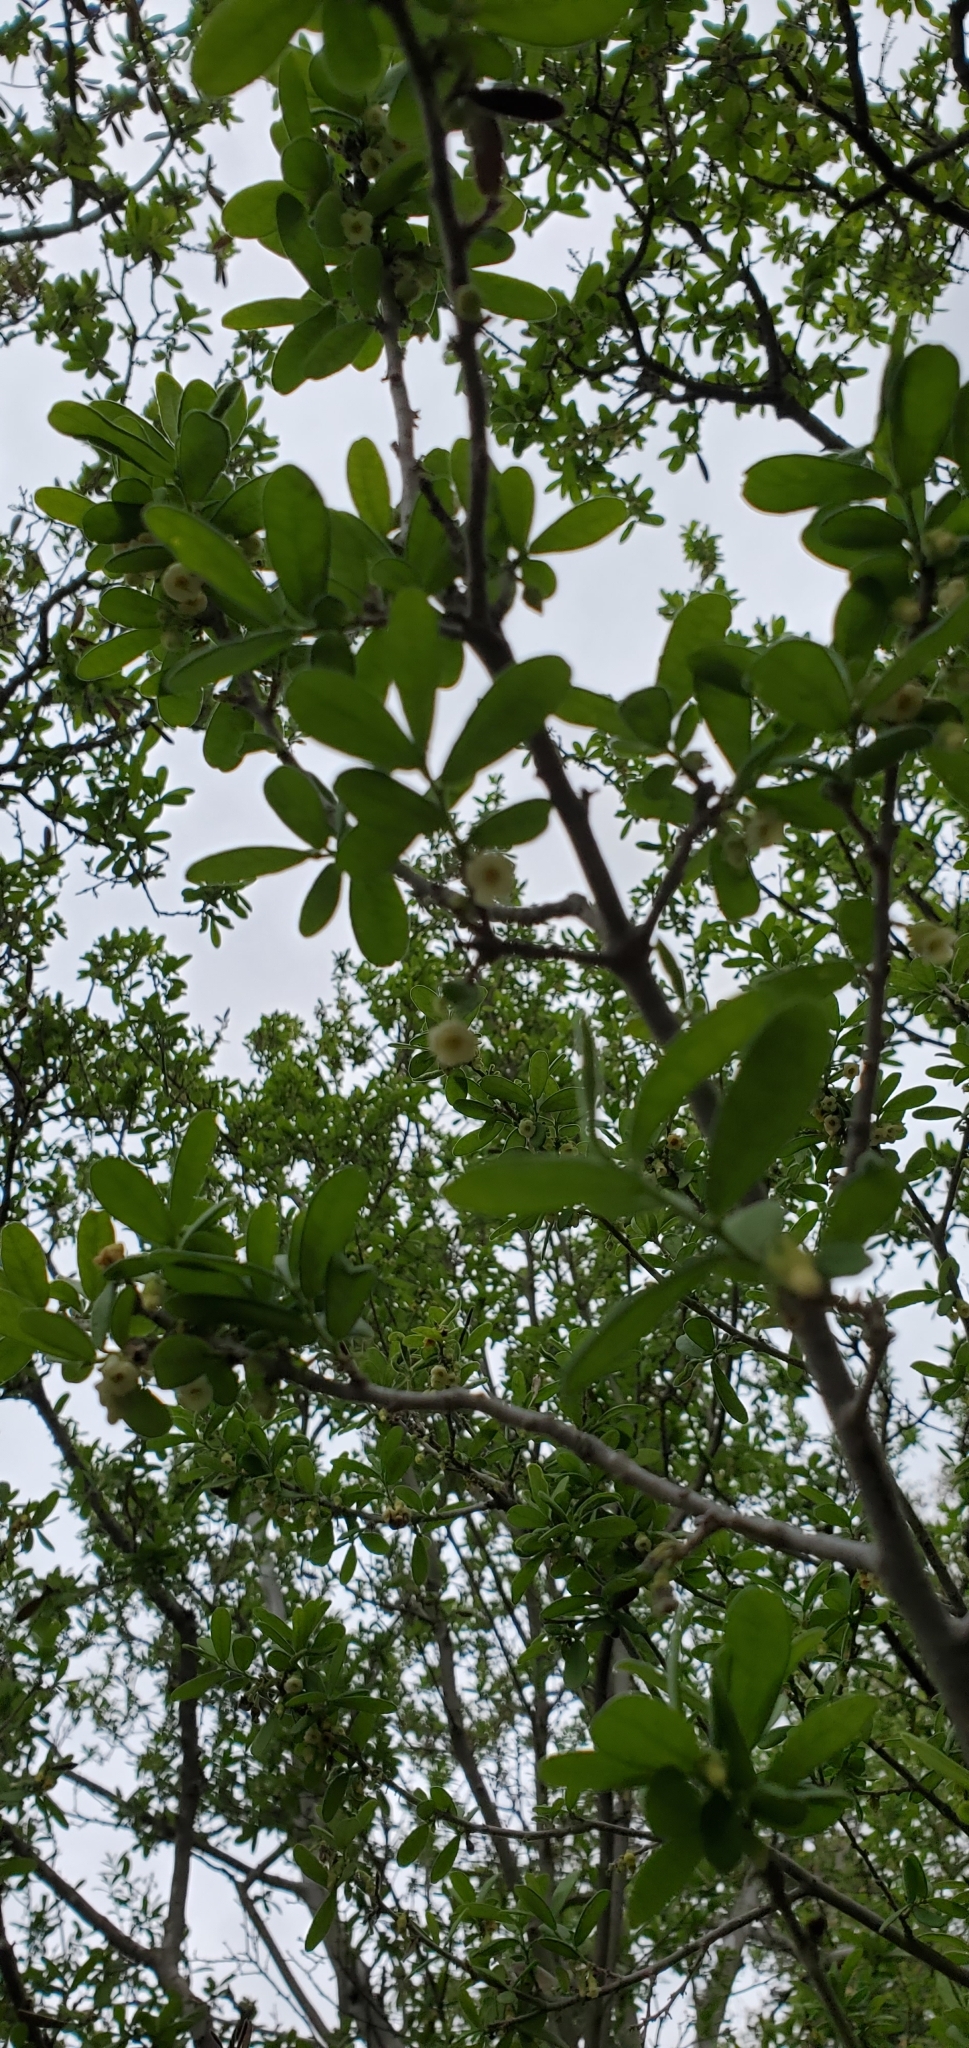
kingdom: Plantae
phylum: Tracheophyta
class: Magnoliopsida
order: Ericales
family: Ebenaceae
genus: Diospyros
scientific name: Diospyros texana
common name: Texas persimmon
